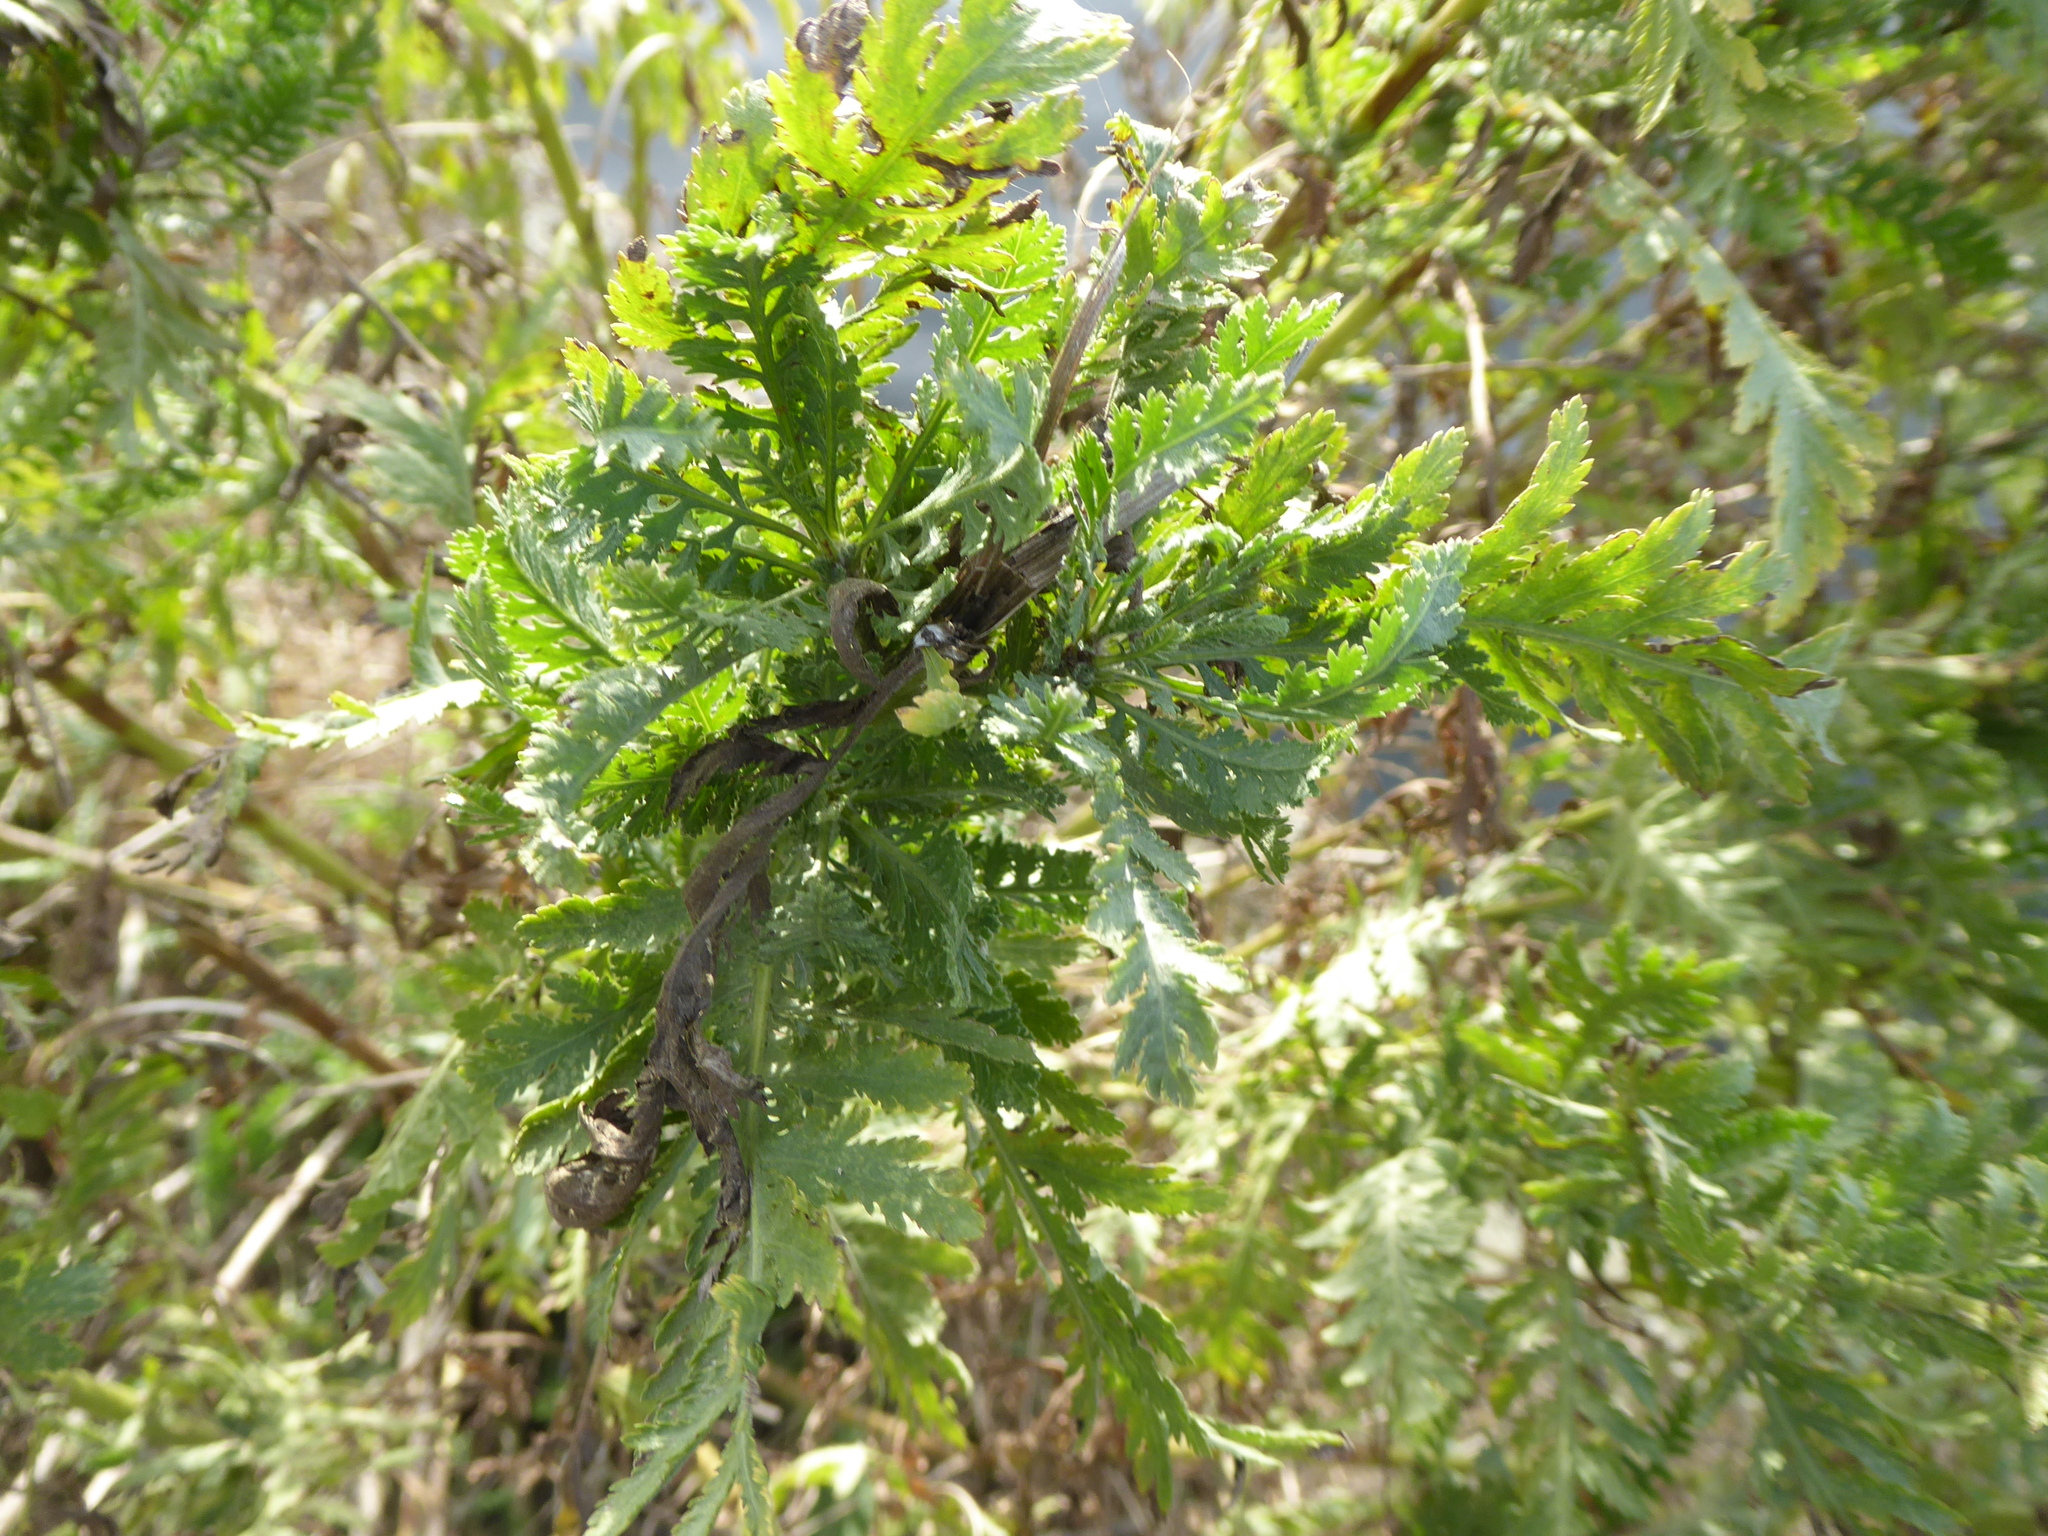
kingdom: Plantae
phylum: Tracheophyta
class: Magnoliopsida
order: Asterales
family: Asteraceae
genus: Achillea
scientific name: Achillea filipendulina
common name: Fernleaf yarrow
